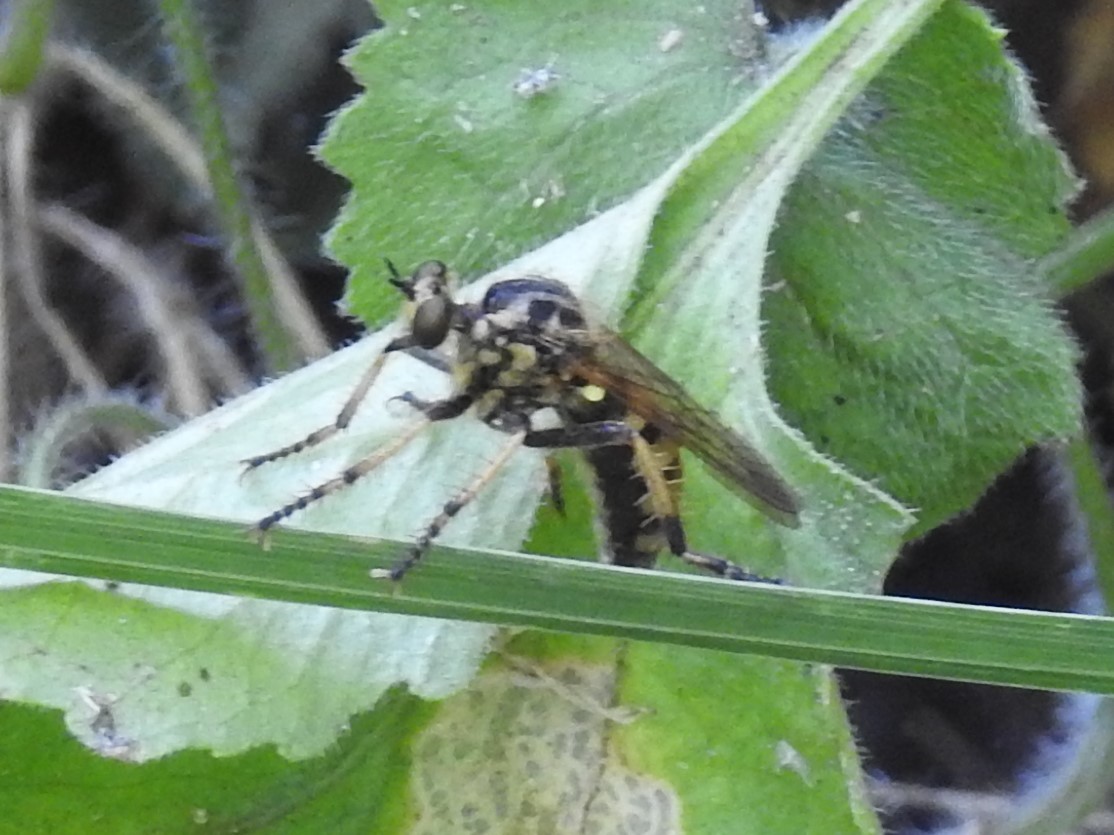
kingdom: Animalia
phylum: Arthropoda
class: Insecta
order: Diptera
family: Asilidae
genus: Callinicus
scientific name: Callinicus pollenius
